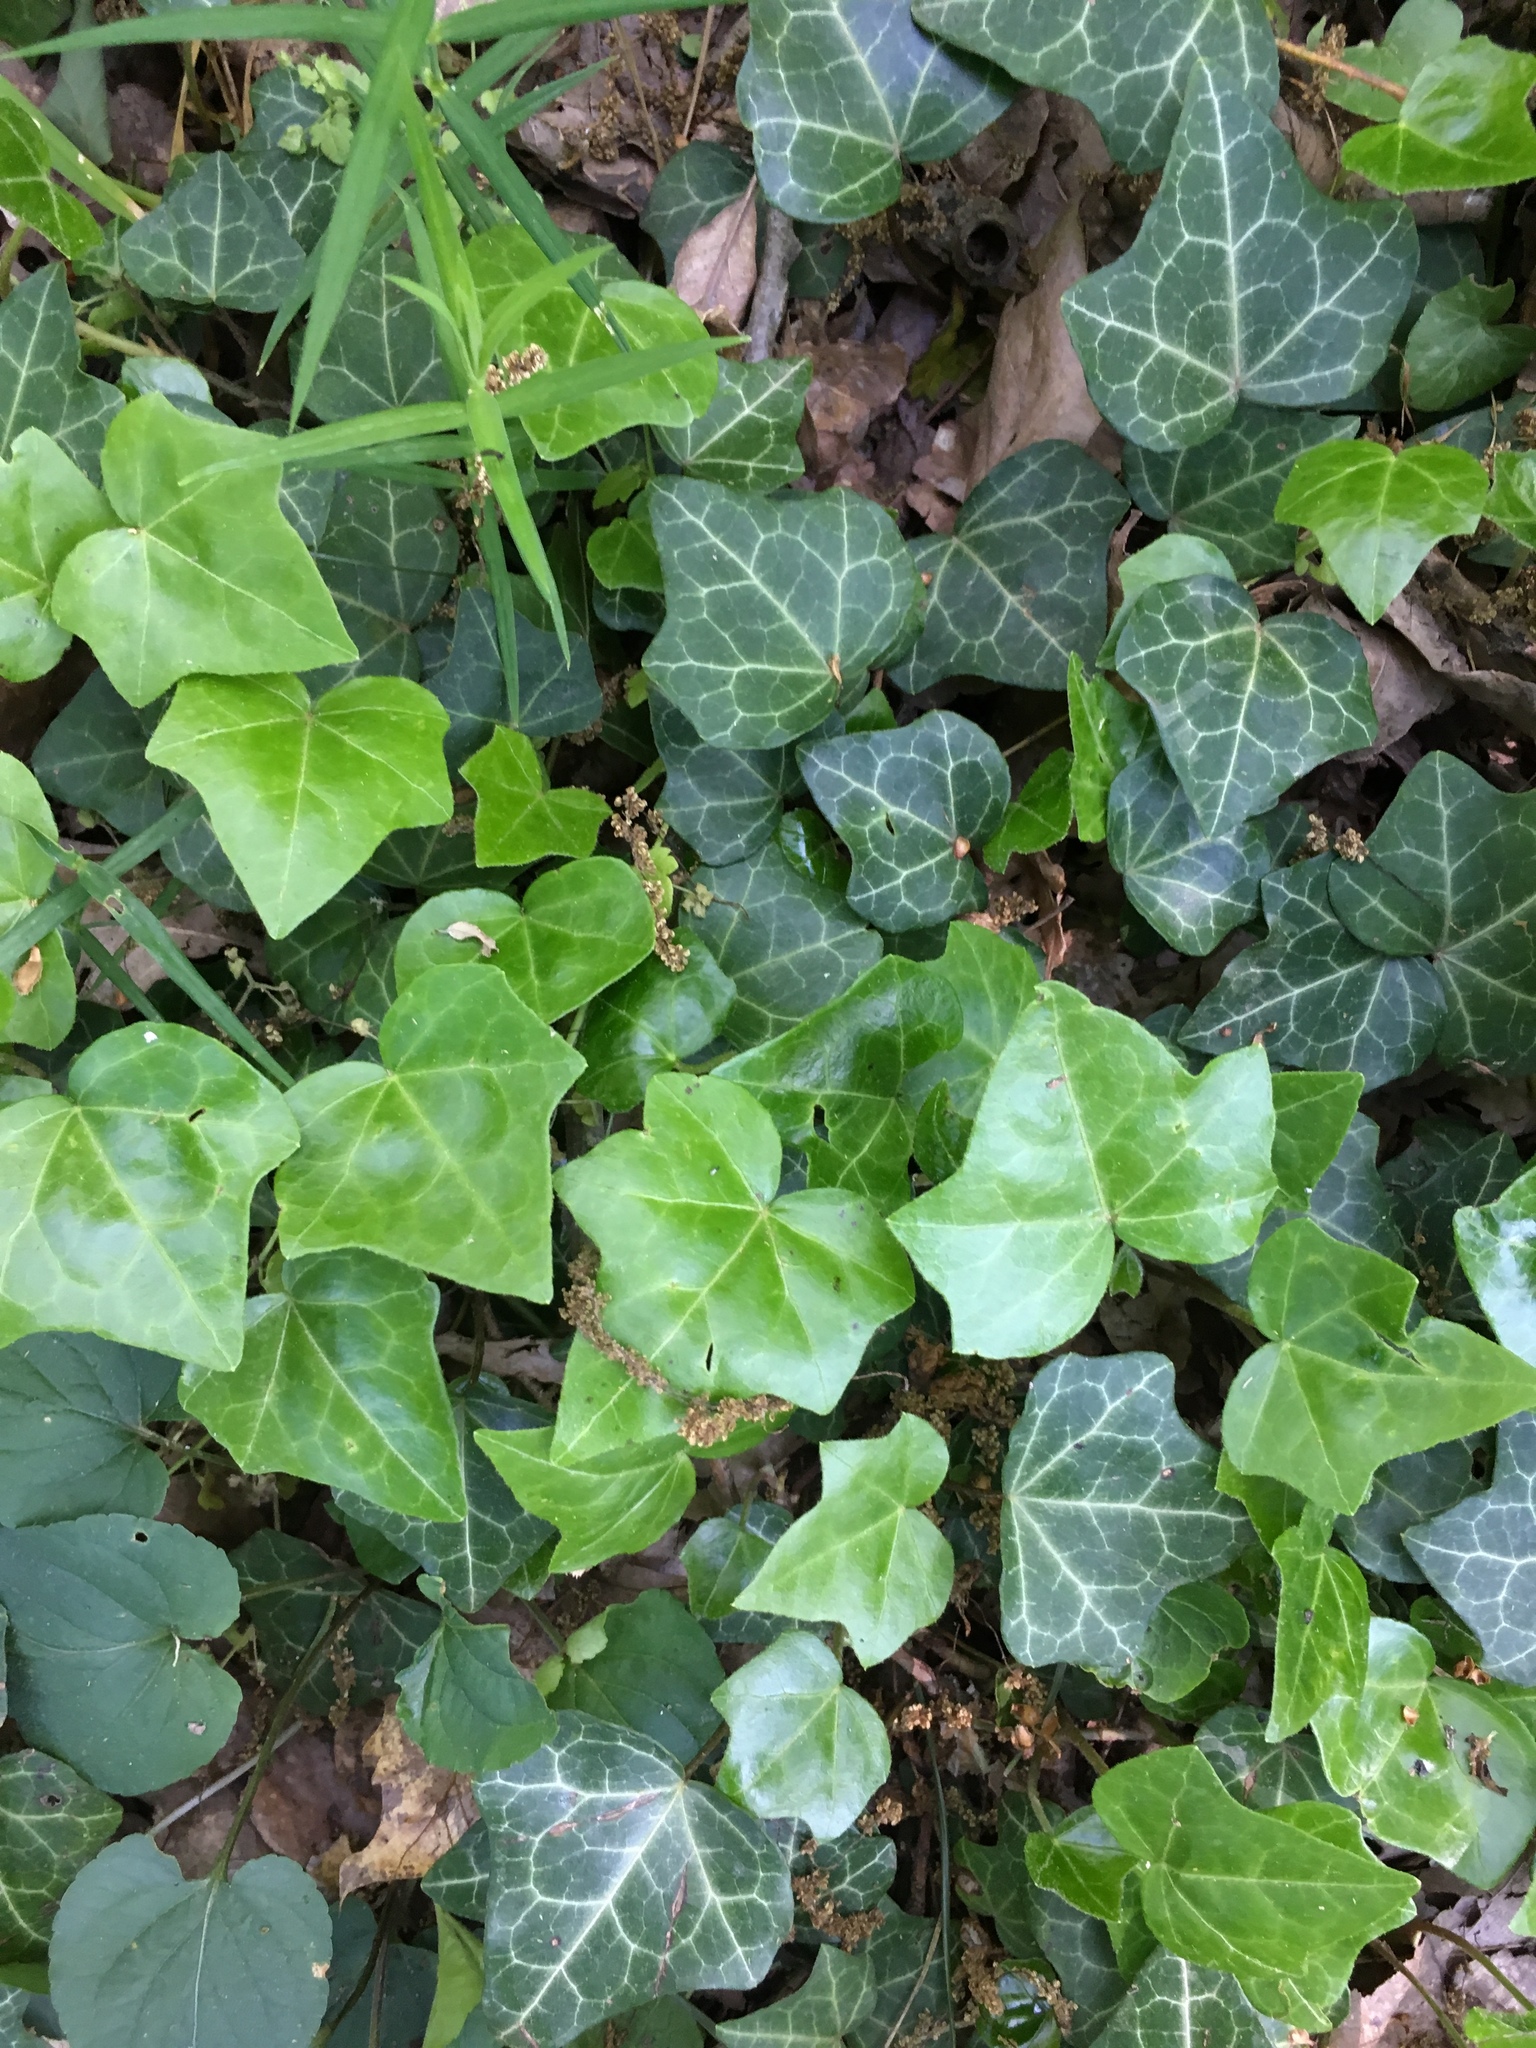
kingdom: Plantae
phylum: Tracheophyta
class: Magnoliopsida
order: Apiales
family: Araliaceae
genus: Hedera
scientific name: Hedera helix
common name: Ivy
